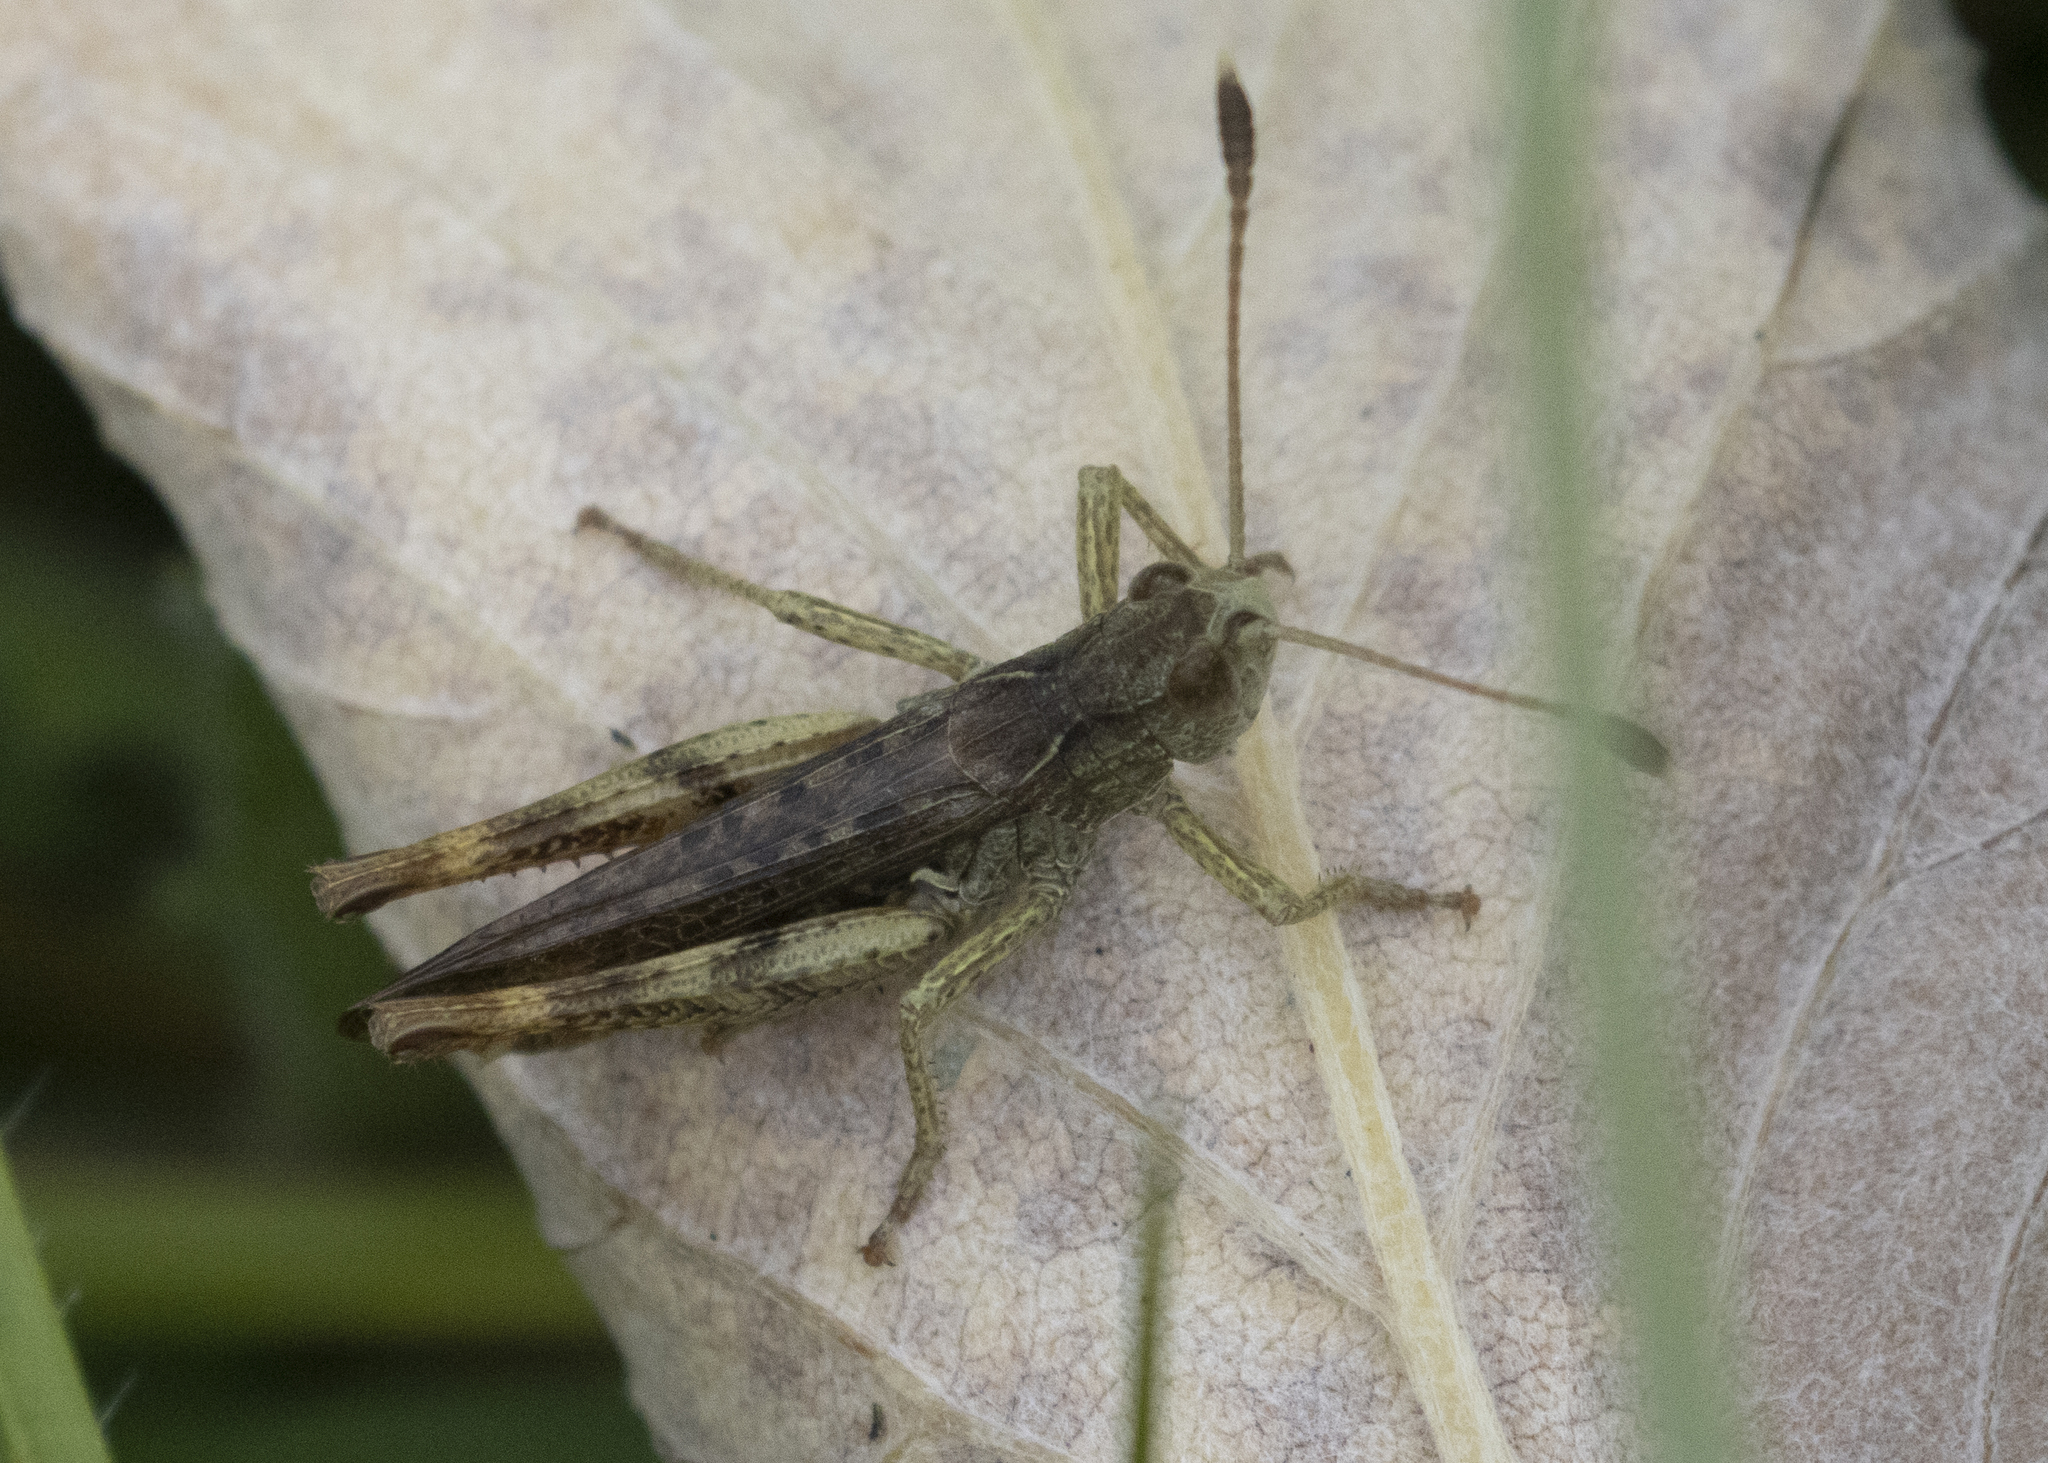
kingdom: Animalia
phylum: Arthropoda
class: Insecta
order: Orthoptera
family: Acrididae
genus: Gomphocerippus
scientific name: Gomphocerippus rufus
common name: Rufous grasshopper
